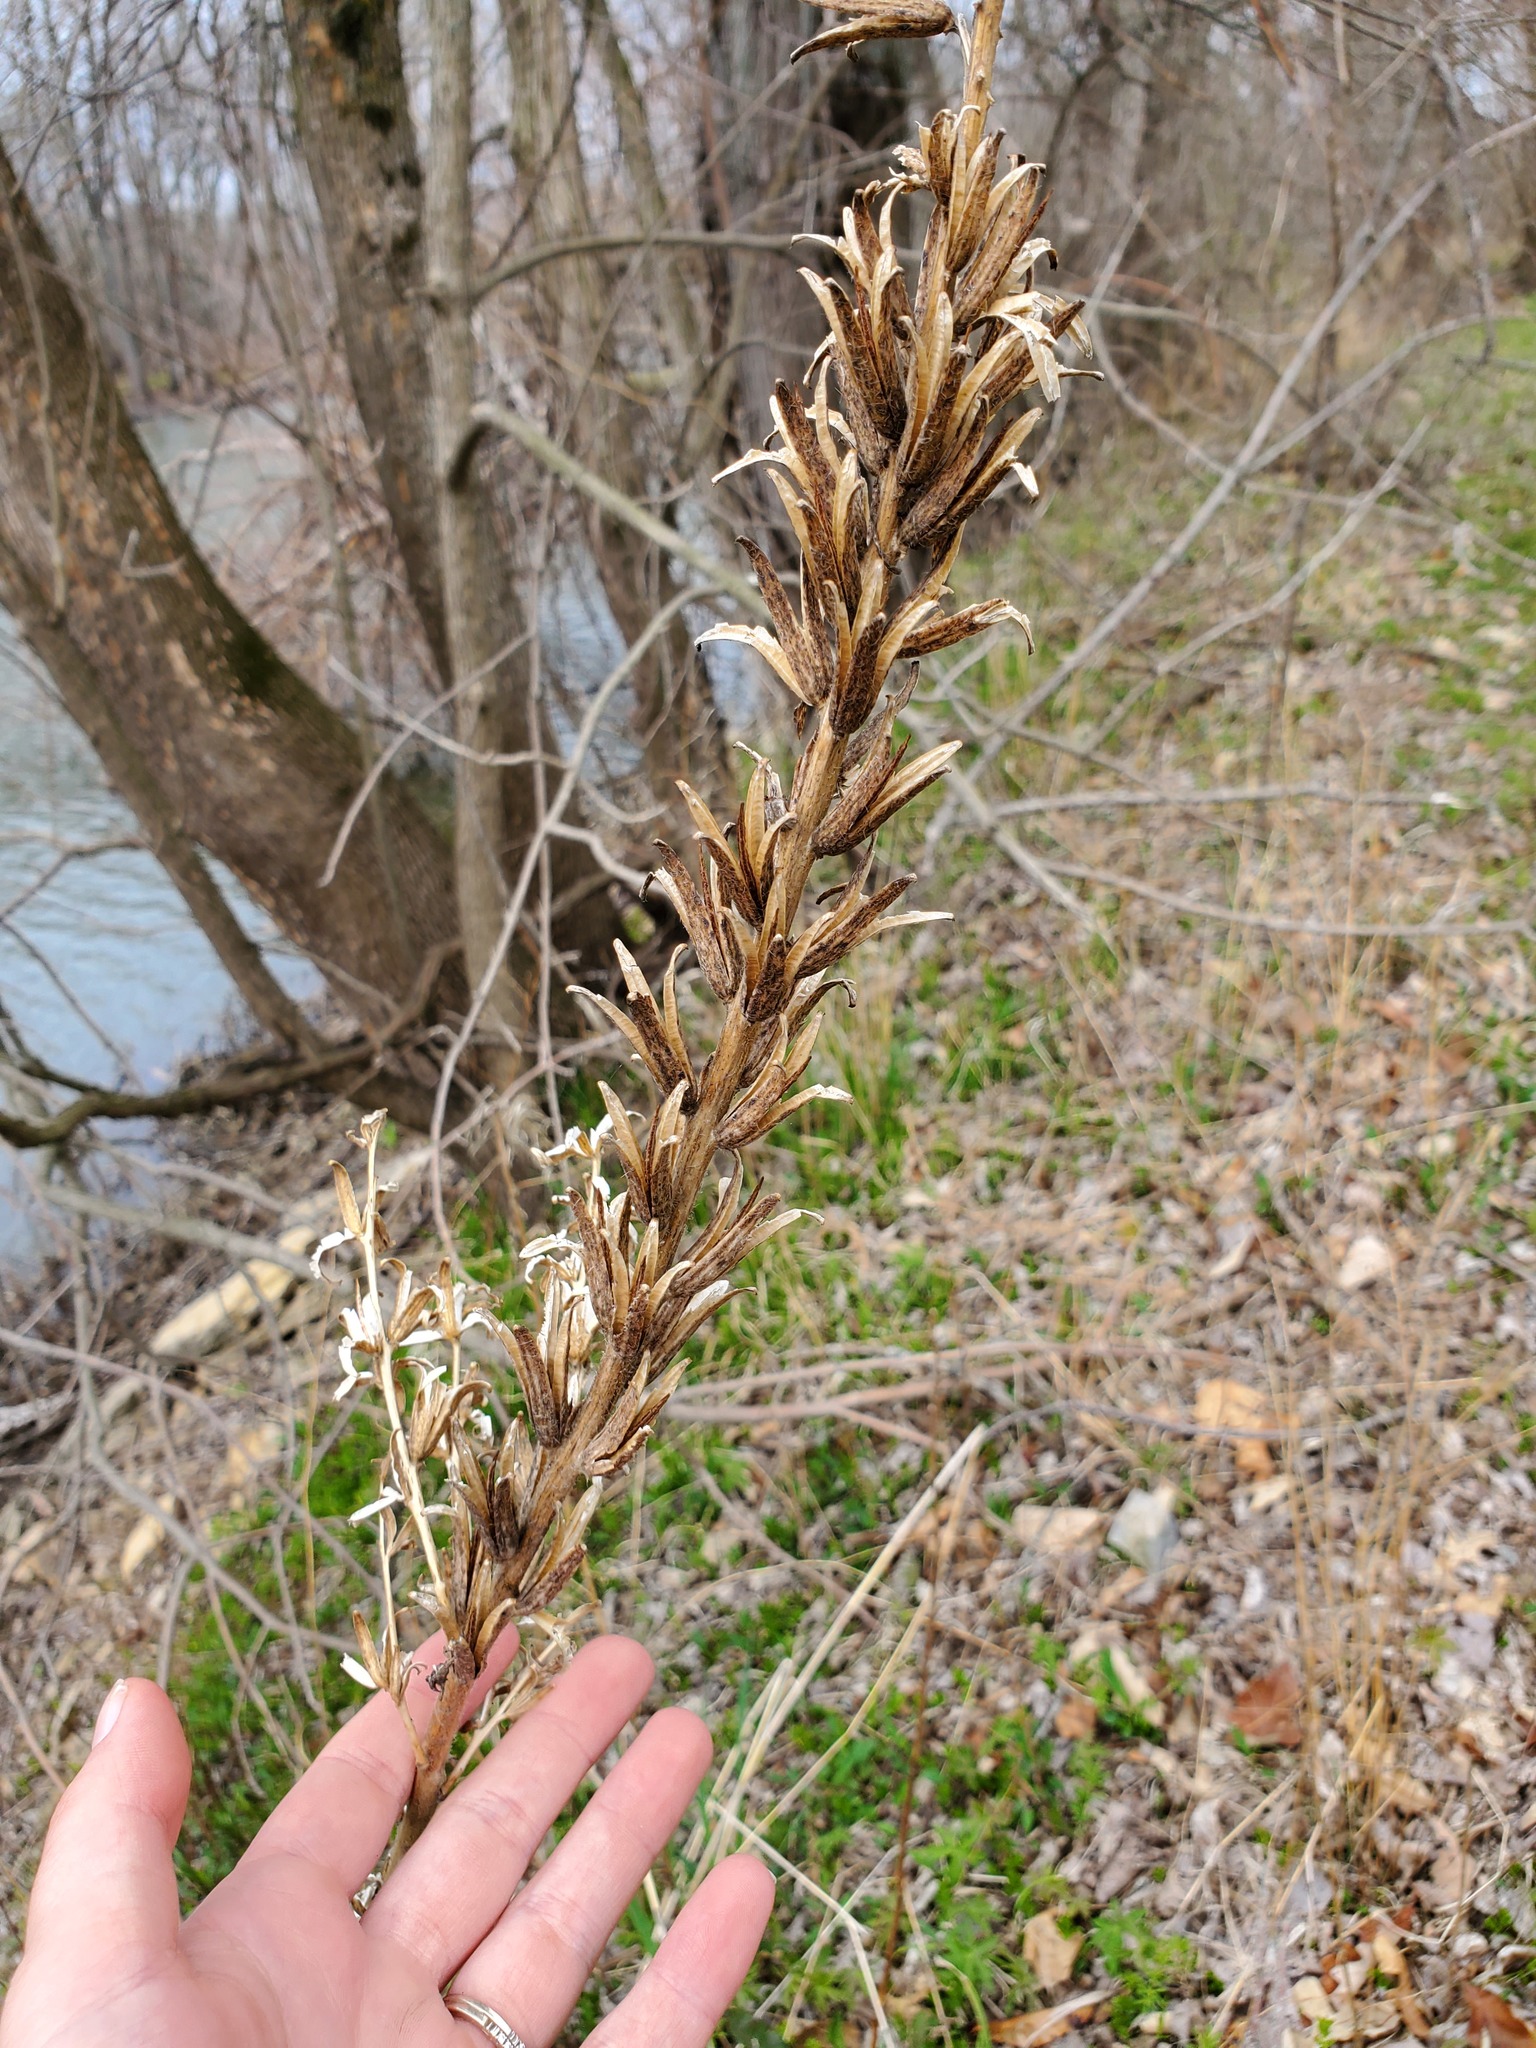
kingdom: Plantae
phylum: Tracheophyta
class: Magnoliopsida
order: Myrtales
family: Onagraceae
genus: Oenothera
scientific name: Oenothera biennis
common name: Common evening-primrose
